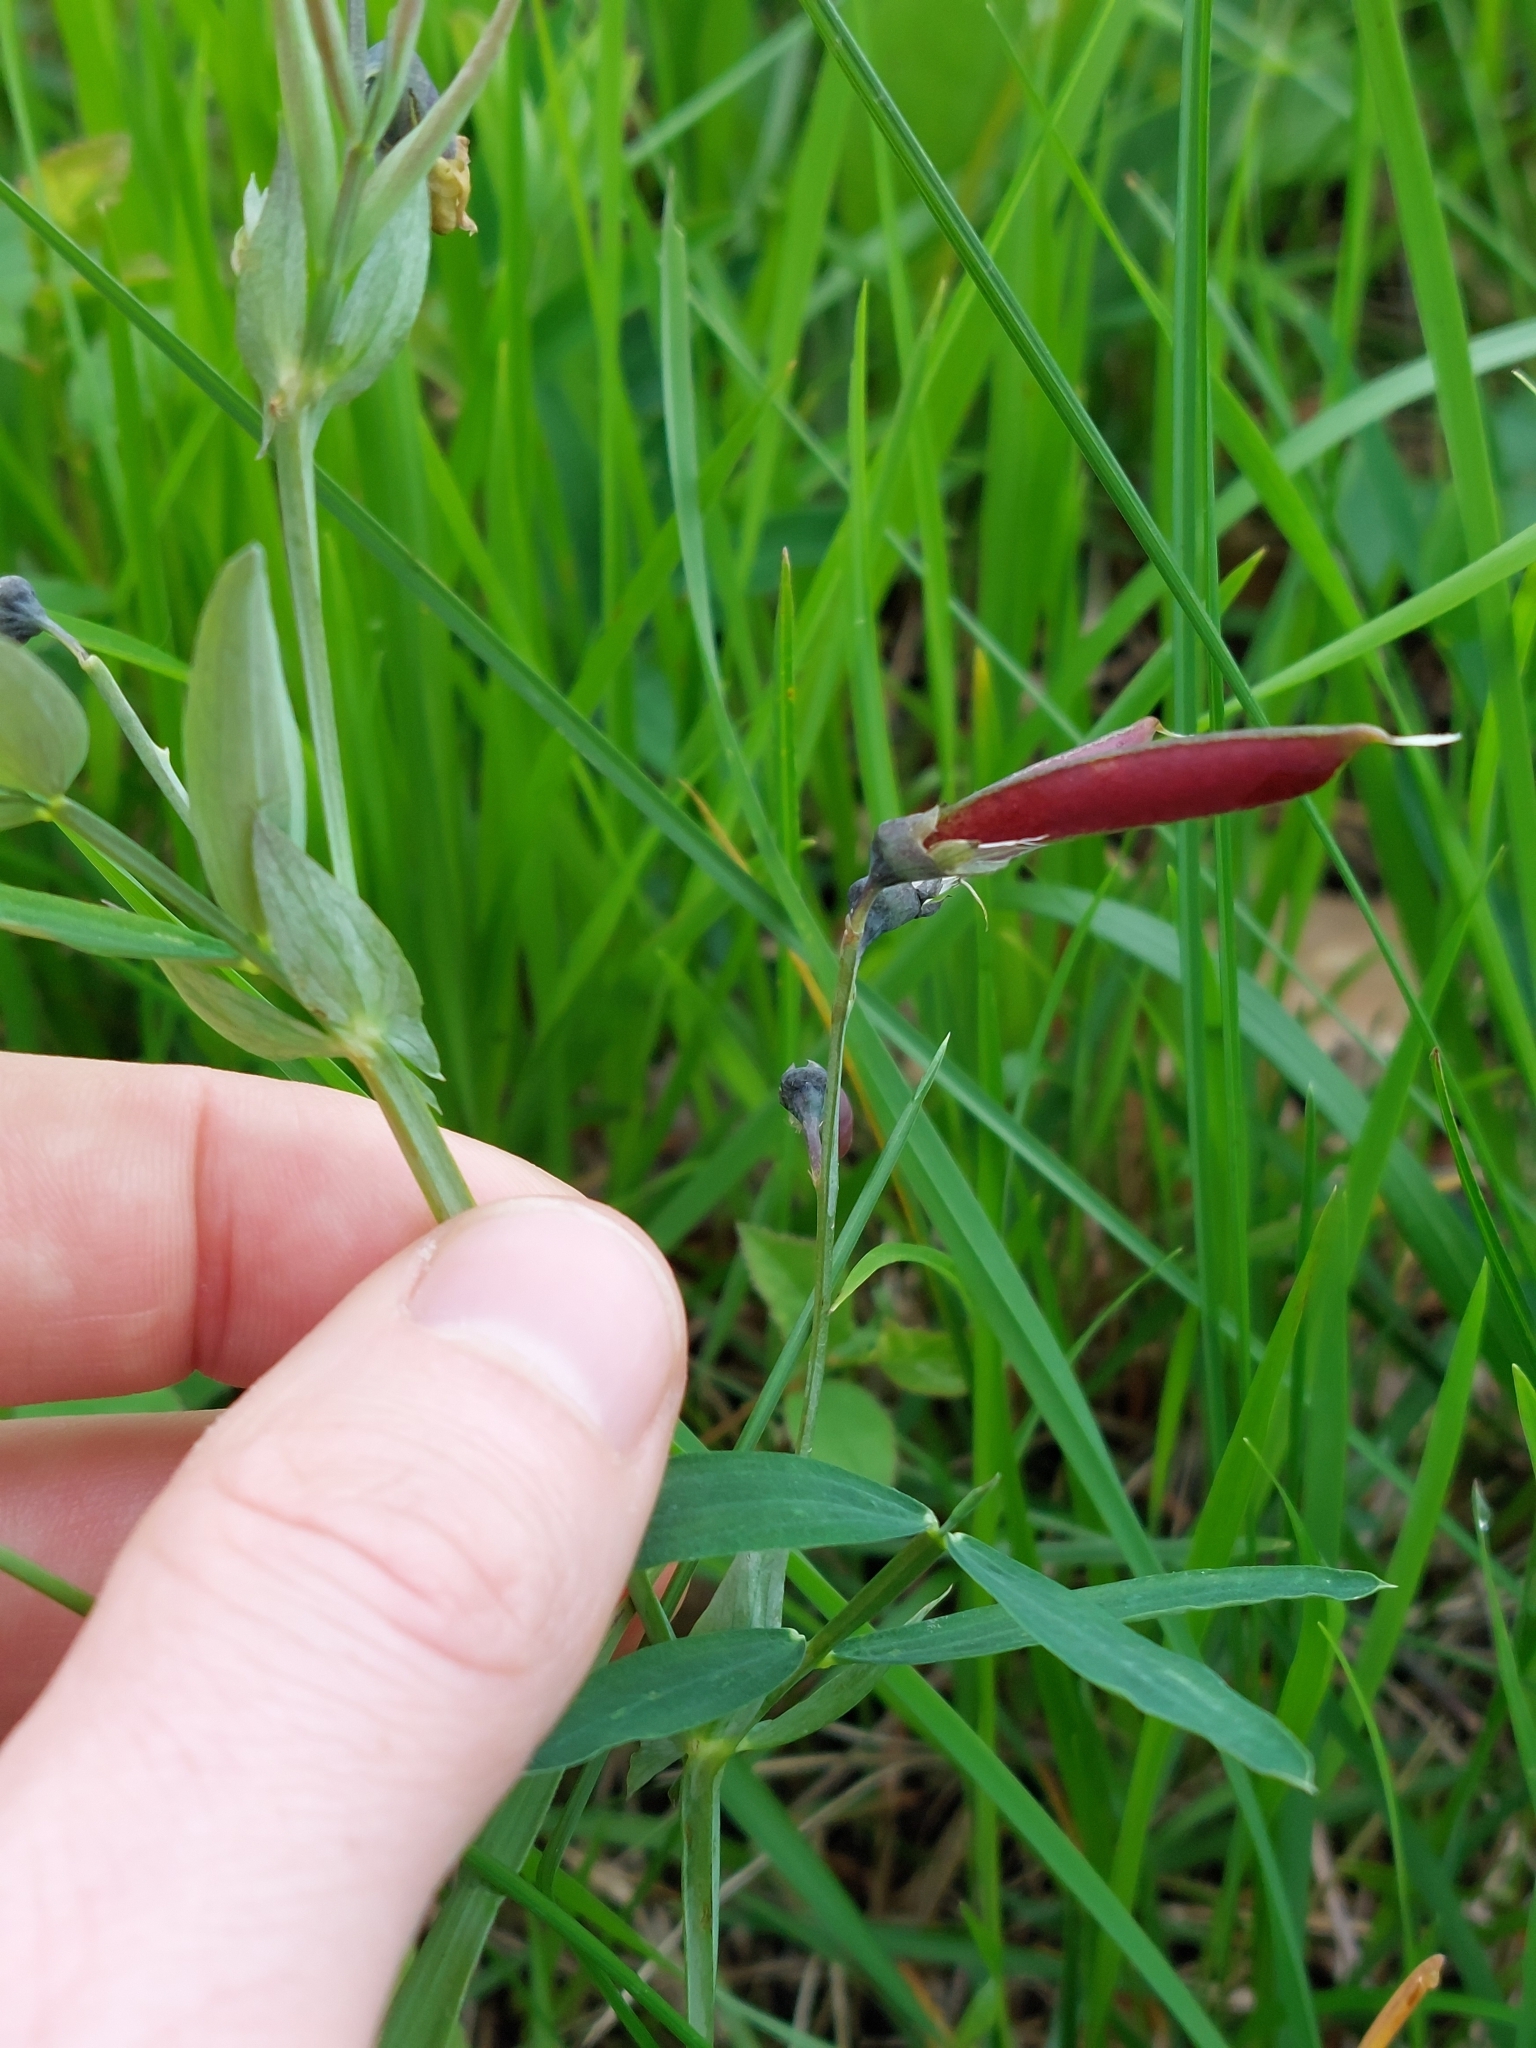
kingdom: Plantae
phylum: Tracheophyta
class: Magnoliopsida
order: Fabales
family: Fabaceae
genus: Lathyrus
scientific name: Lathyrus linifolius
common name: Bitter-vetch
